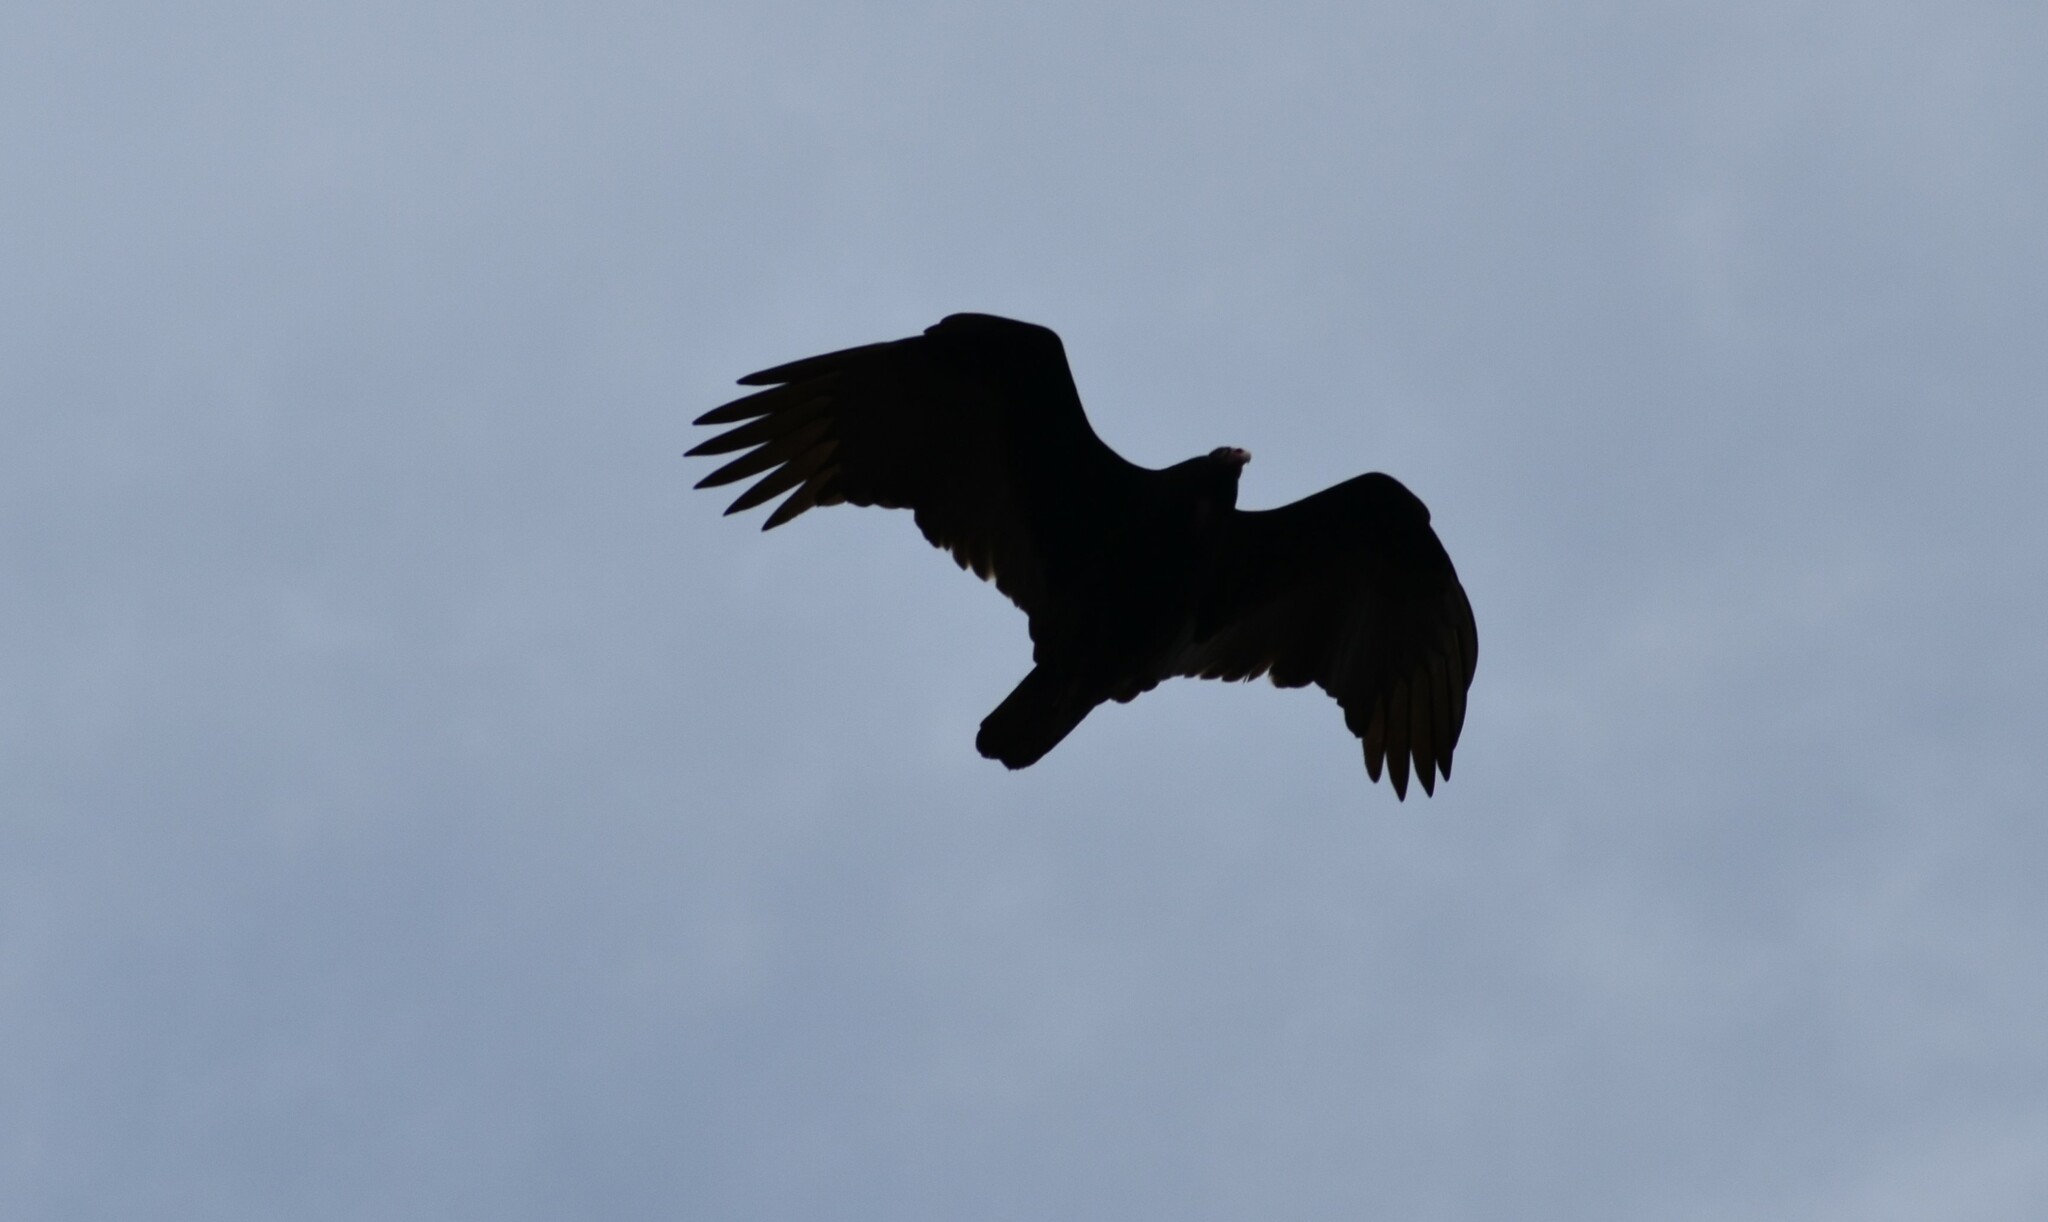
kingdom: Animalia
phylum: Chordata
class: Aves
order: Accipitriformes
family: Cathartidae
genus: Cathartes
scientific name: Cathartes aura
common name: Turkey vulture
